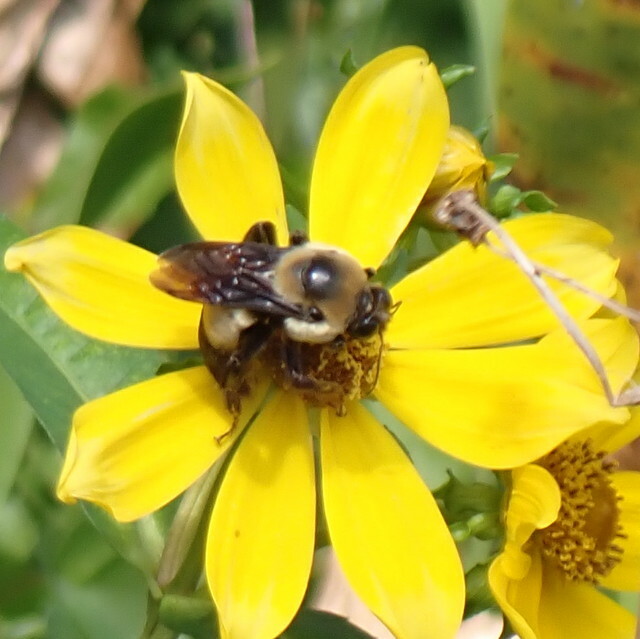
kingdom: Animalia
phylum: Arthropoda
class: Insecta
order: Hymenoptera
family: Apidae
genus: Bombus
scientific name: Bombus fraternus
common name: Southern plains bumble bee
